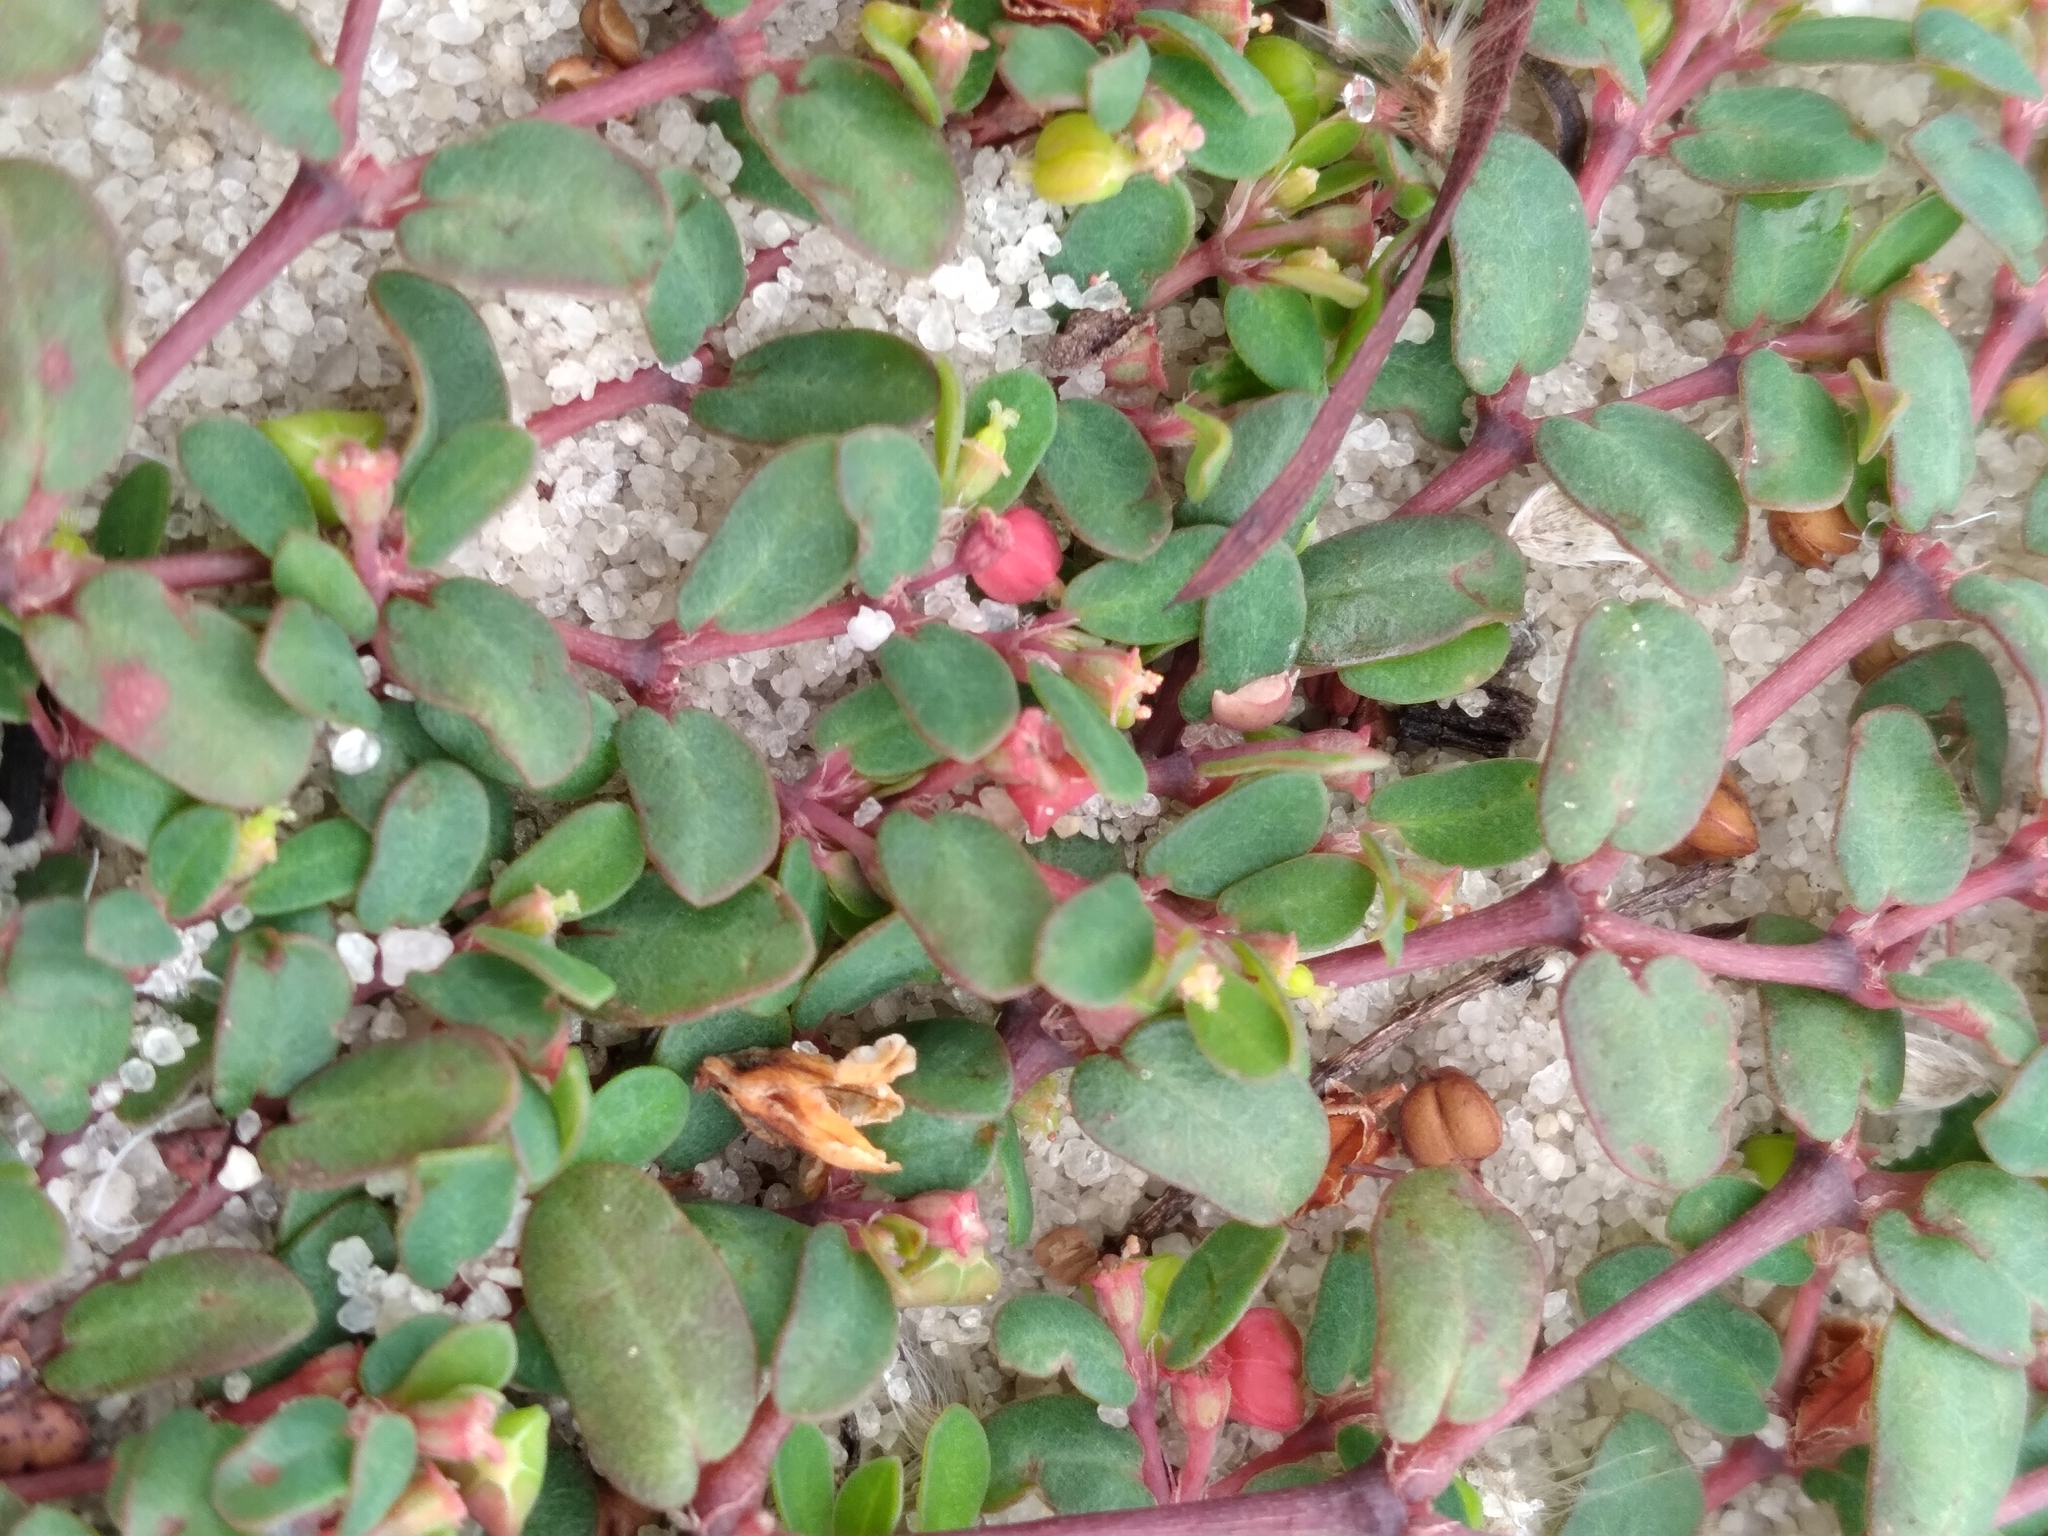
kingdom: Plantae
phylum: Tracheophyta
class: Magnoliopsida
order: Malpighiales
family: Euphorbiaceae
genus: Euphorbia
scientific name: Euphorbia cordifolia
